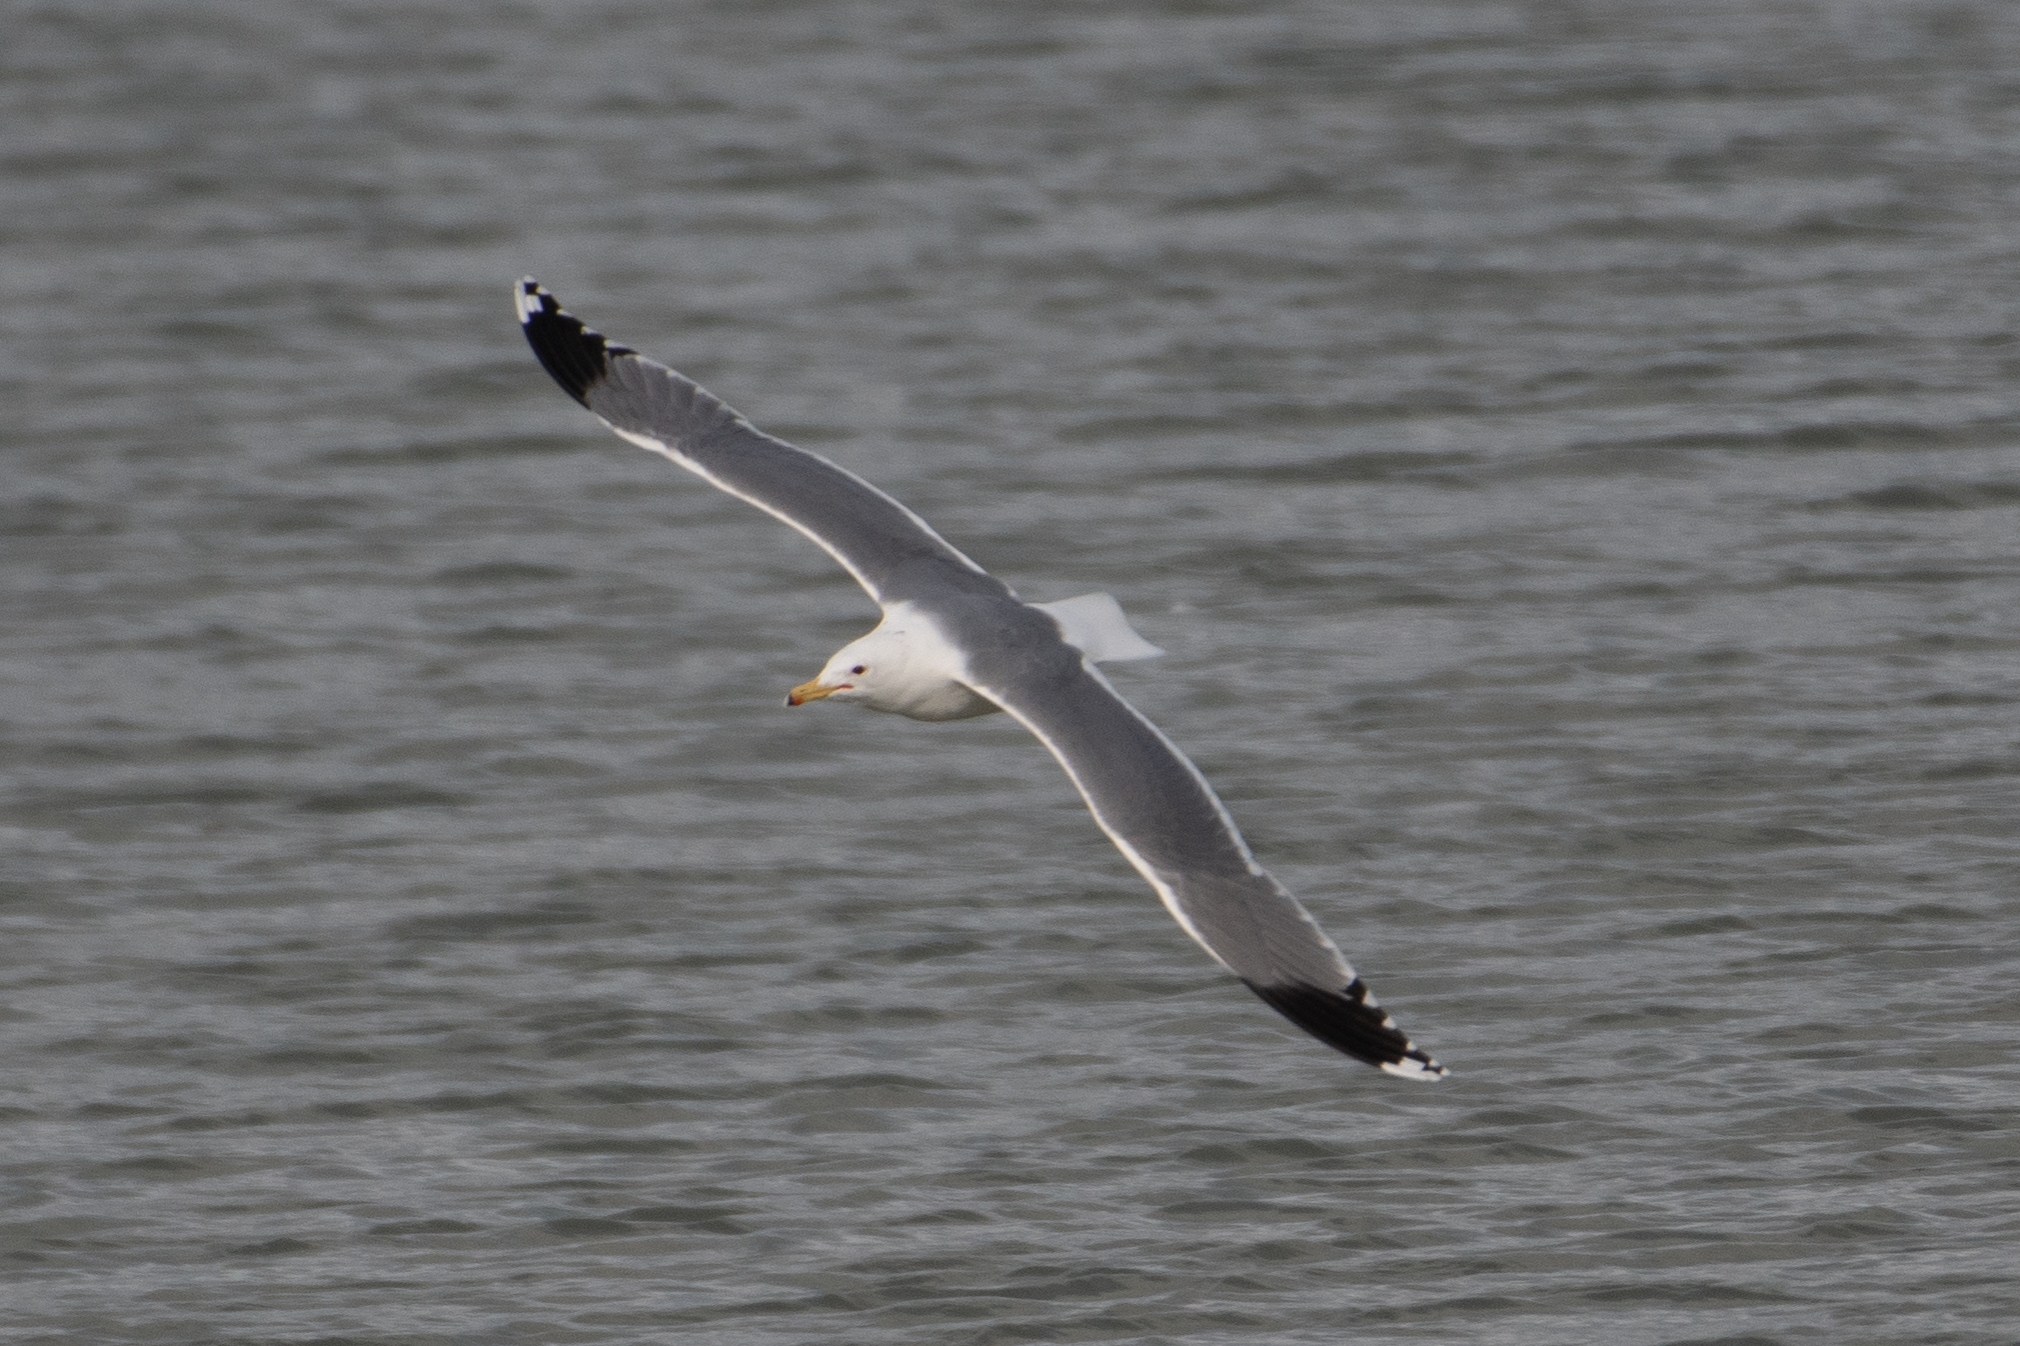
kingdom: Animalia
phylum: Chordata
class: Aves
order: Charadriiformes
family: Laridae
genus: Larus
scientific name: Larus californicus
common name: California gull
